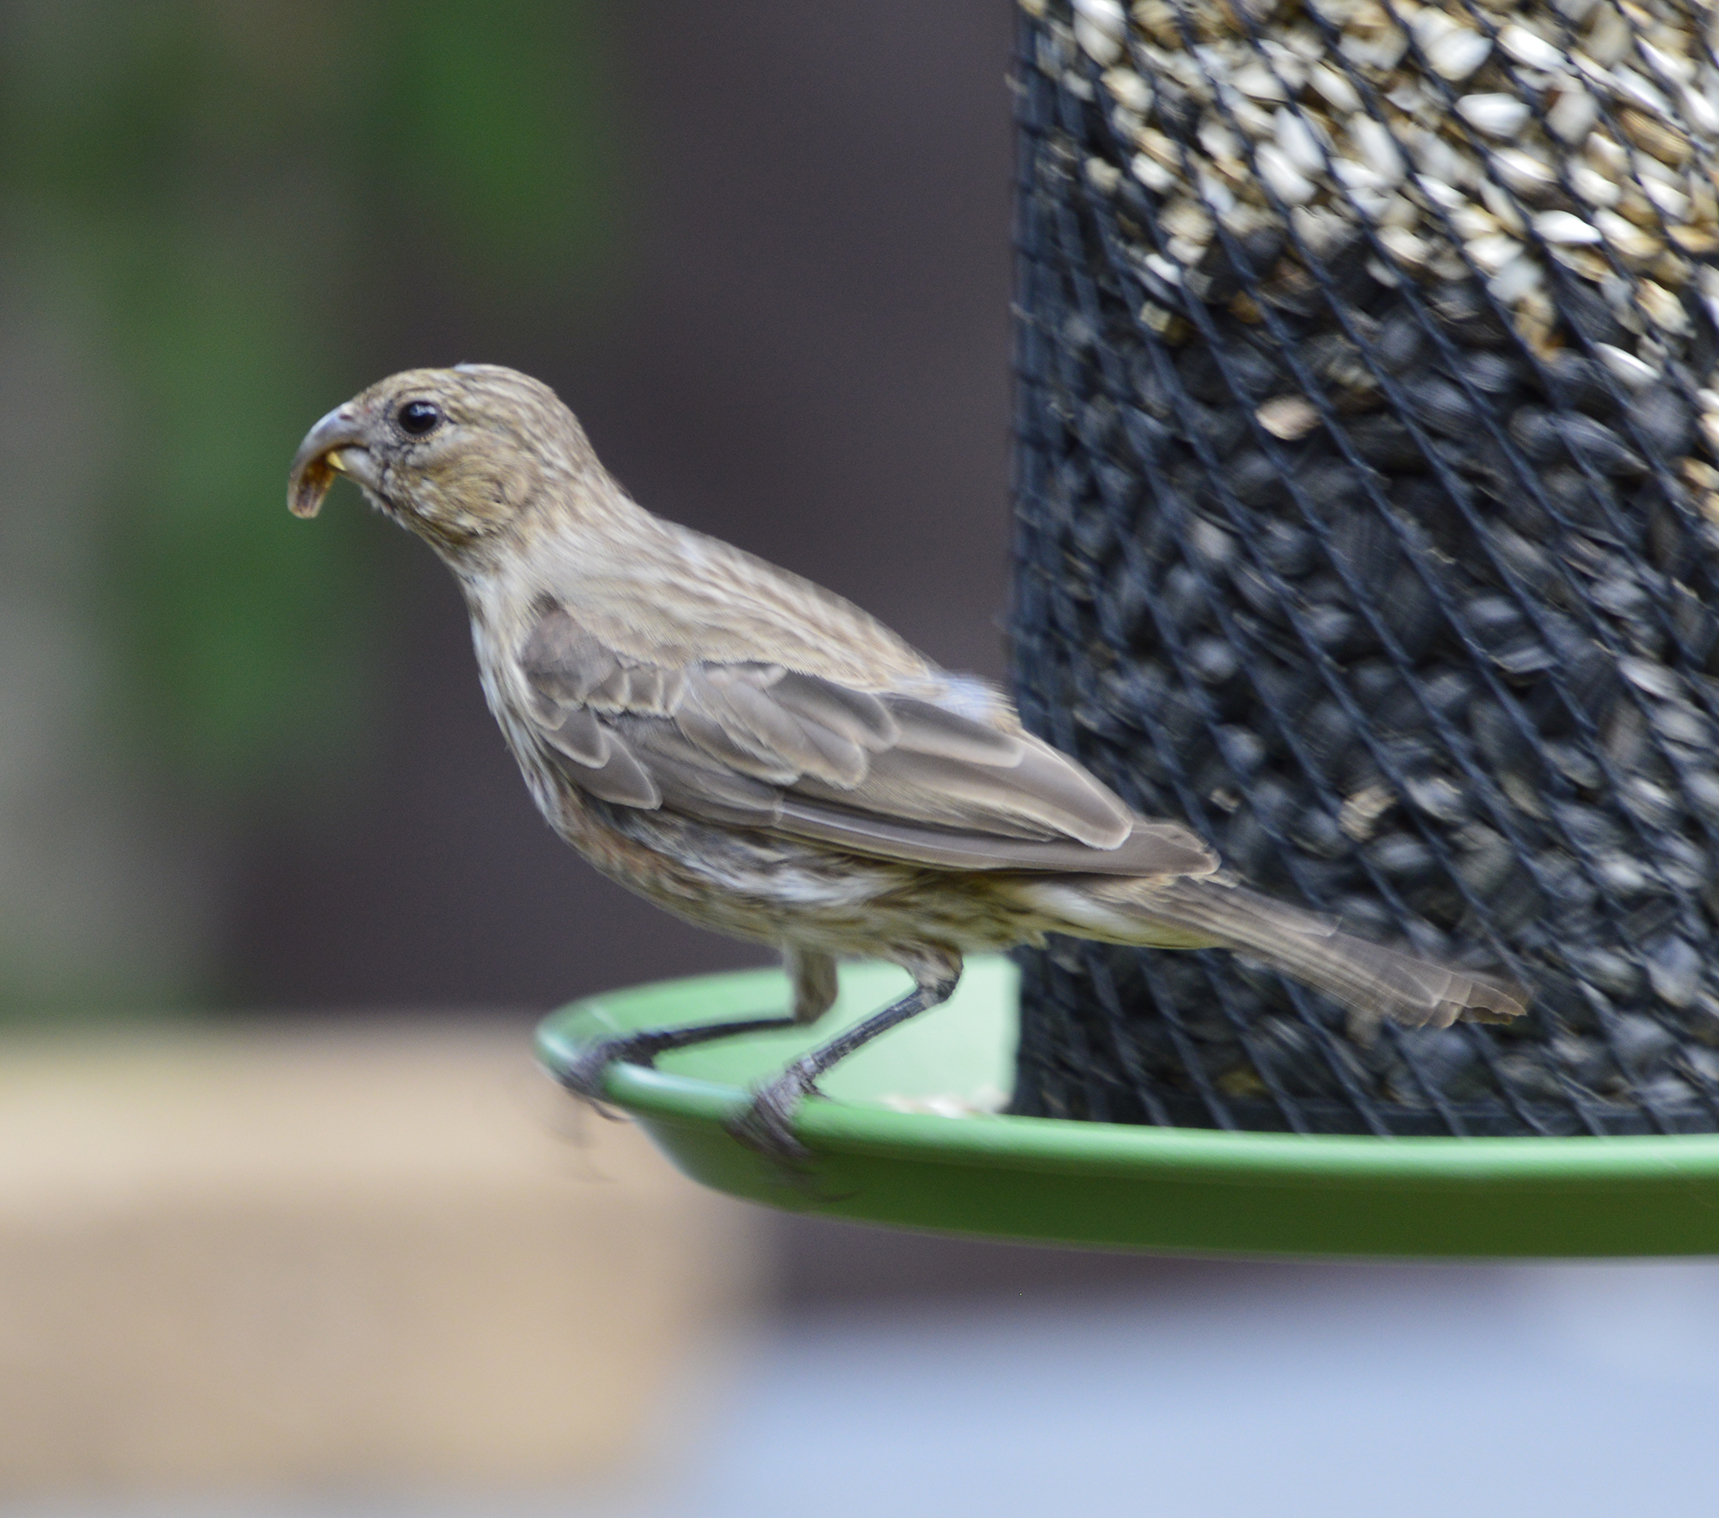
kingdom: Animalia
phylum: Chordata
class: Aves
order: Passeriformes
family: Fringillidae
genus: Haemorhous
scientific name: Haemorhous mexicanus
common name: House finch
